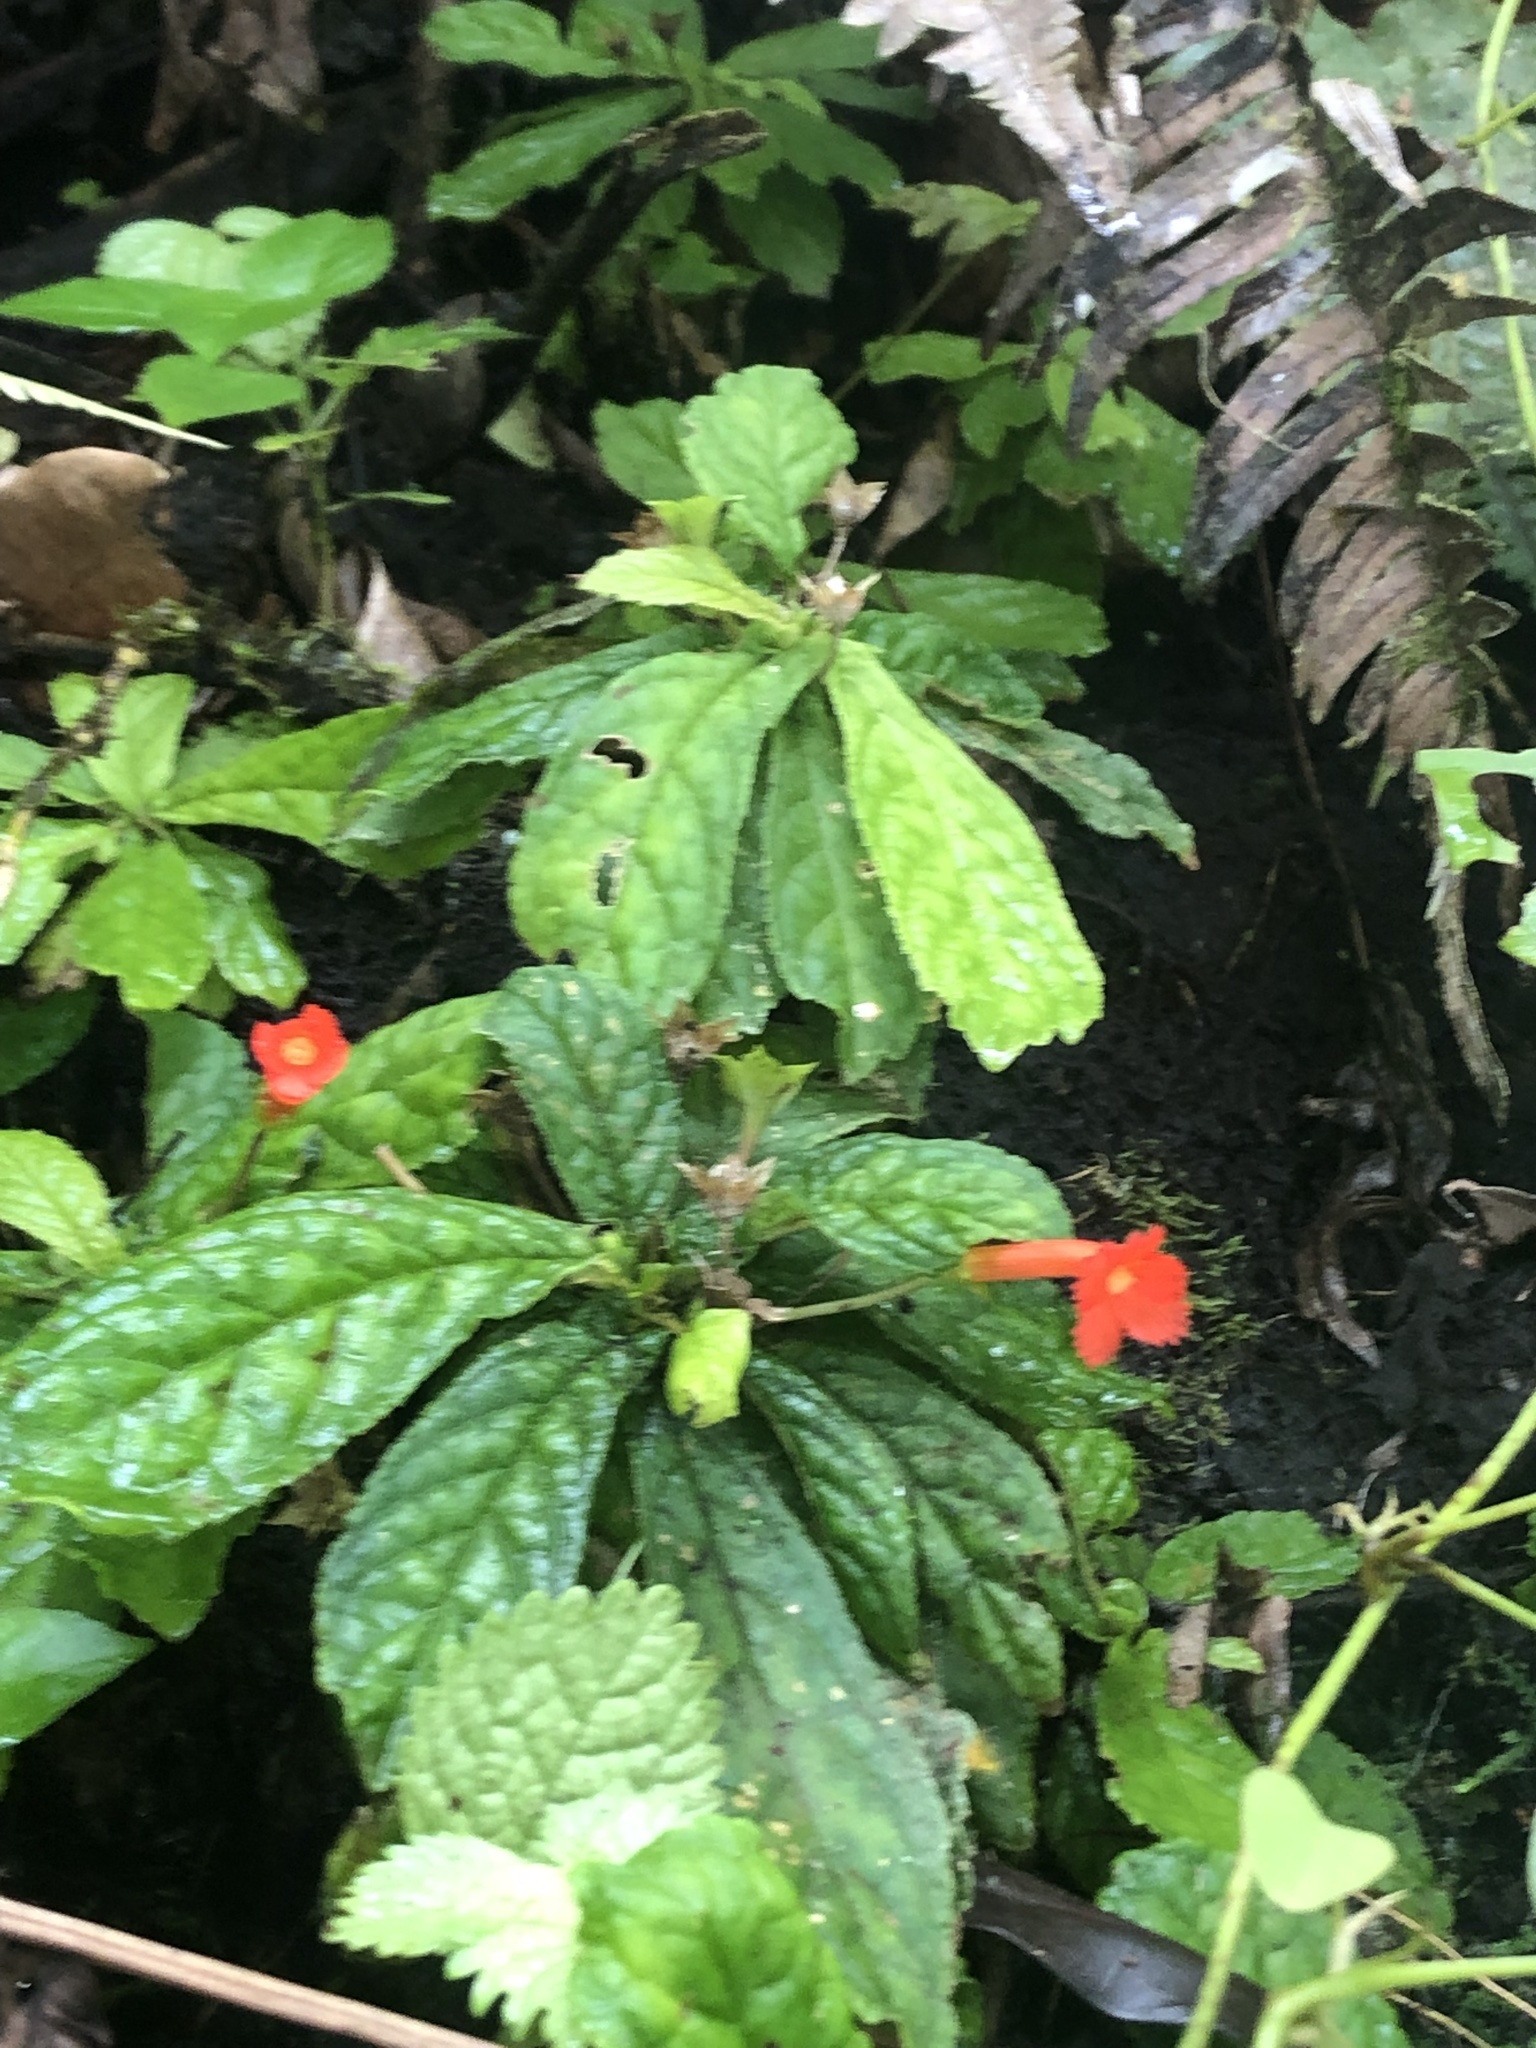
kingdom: Plantae
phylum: Tracheophyta
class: Magnoliopsida
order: Lamiales
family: Gesneriaceae
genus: Gesneria
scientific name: Gesneria reticulata
